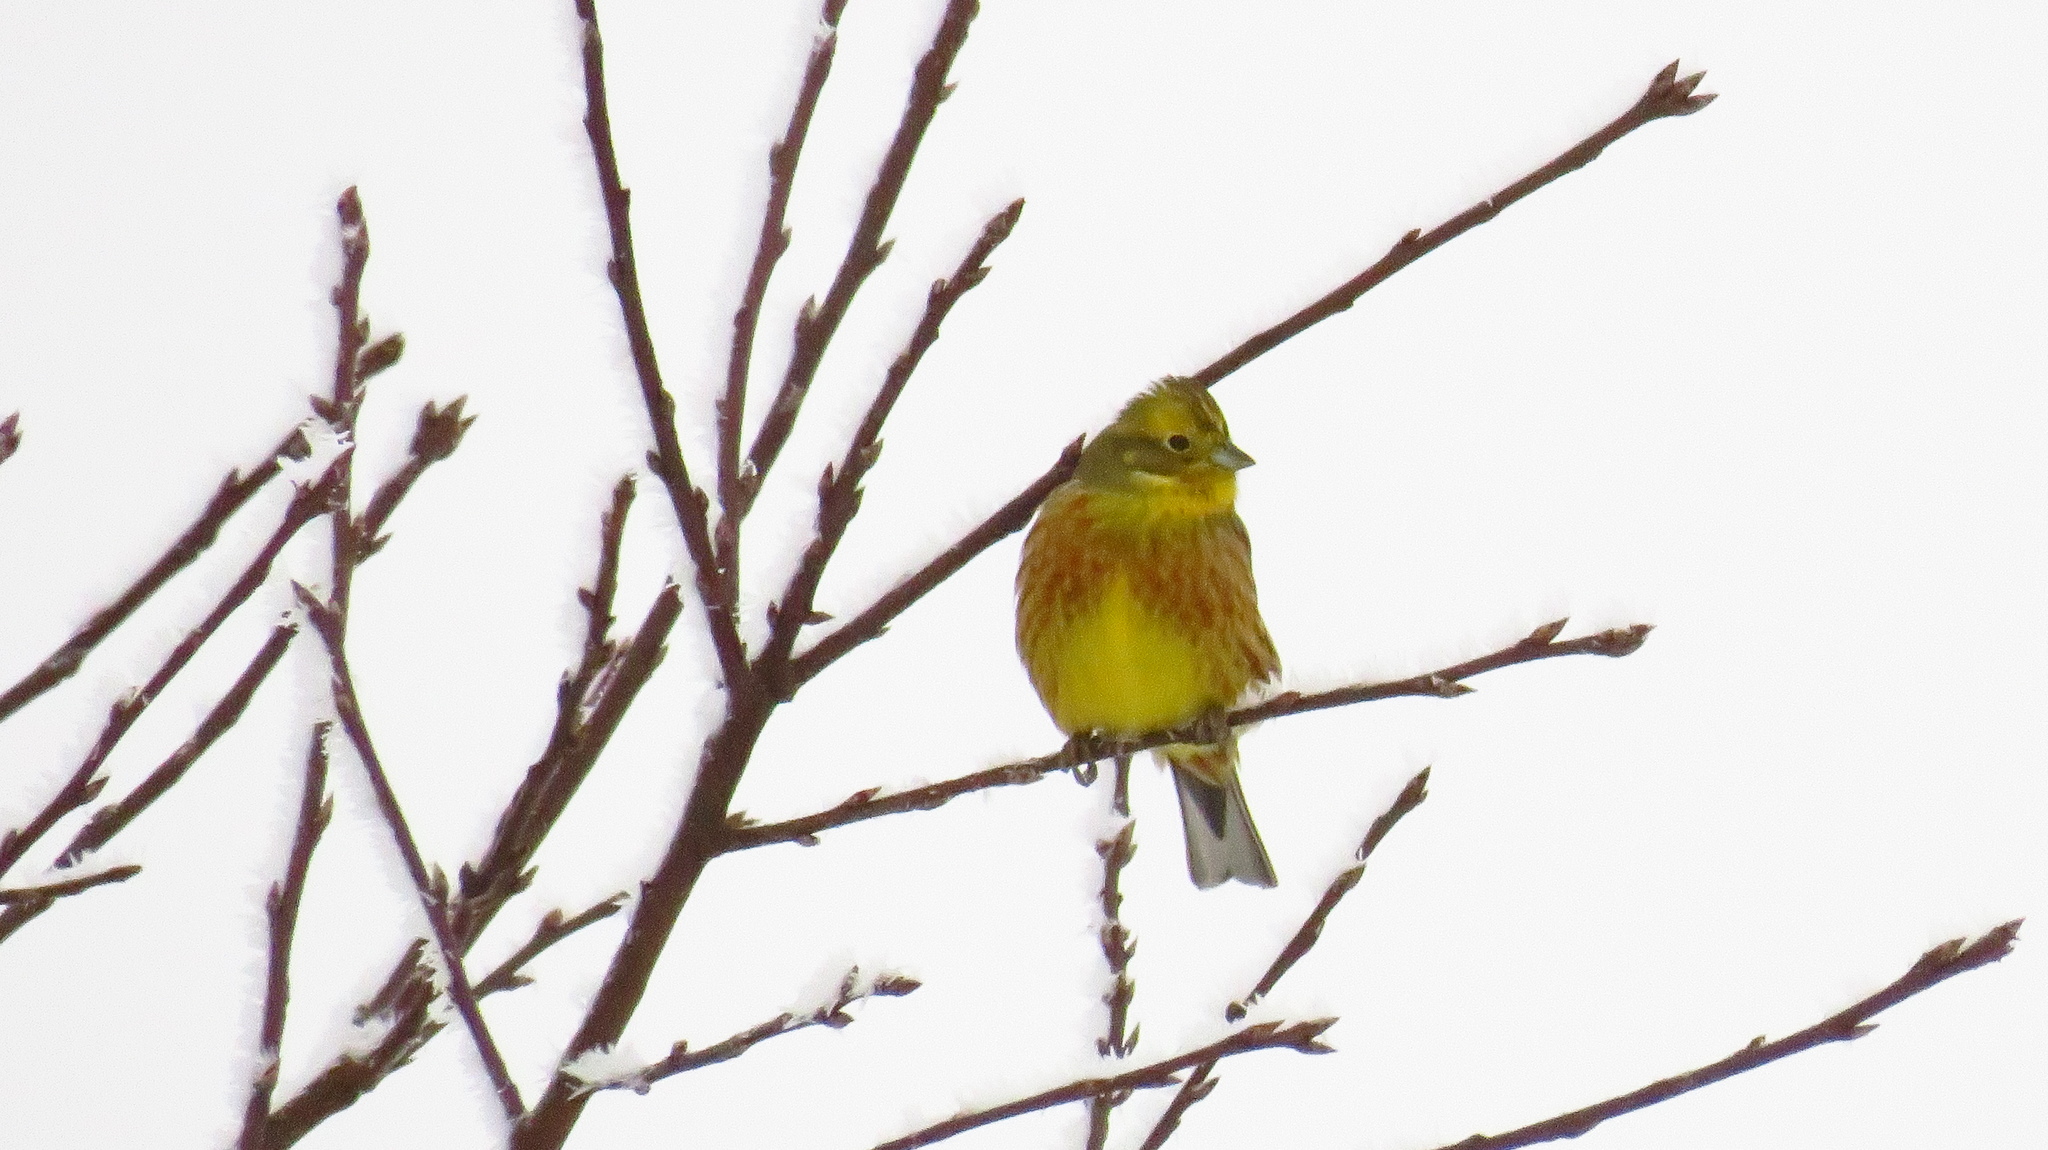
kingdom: Animalia
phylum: Chordata
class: Aves
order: Passeriformes
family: Emberizidae
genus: Emberiza
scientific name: Emberiza citrinella
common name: Yellowhammer
